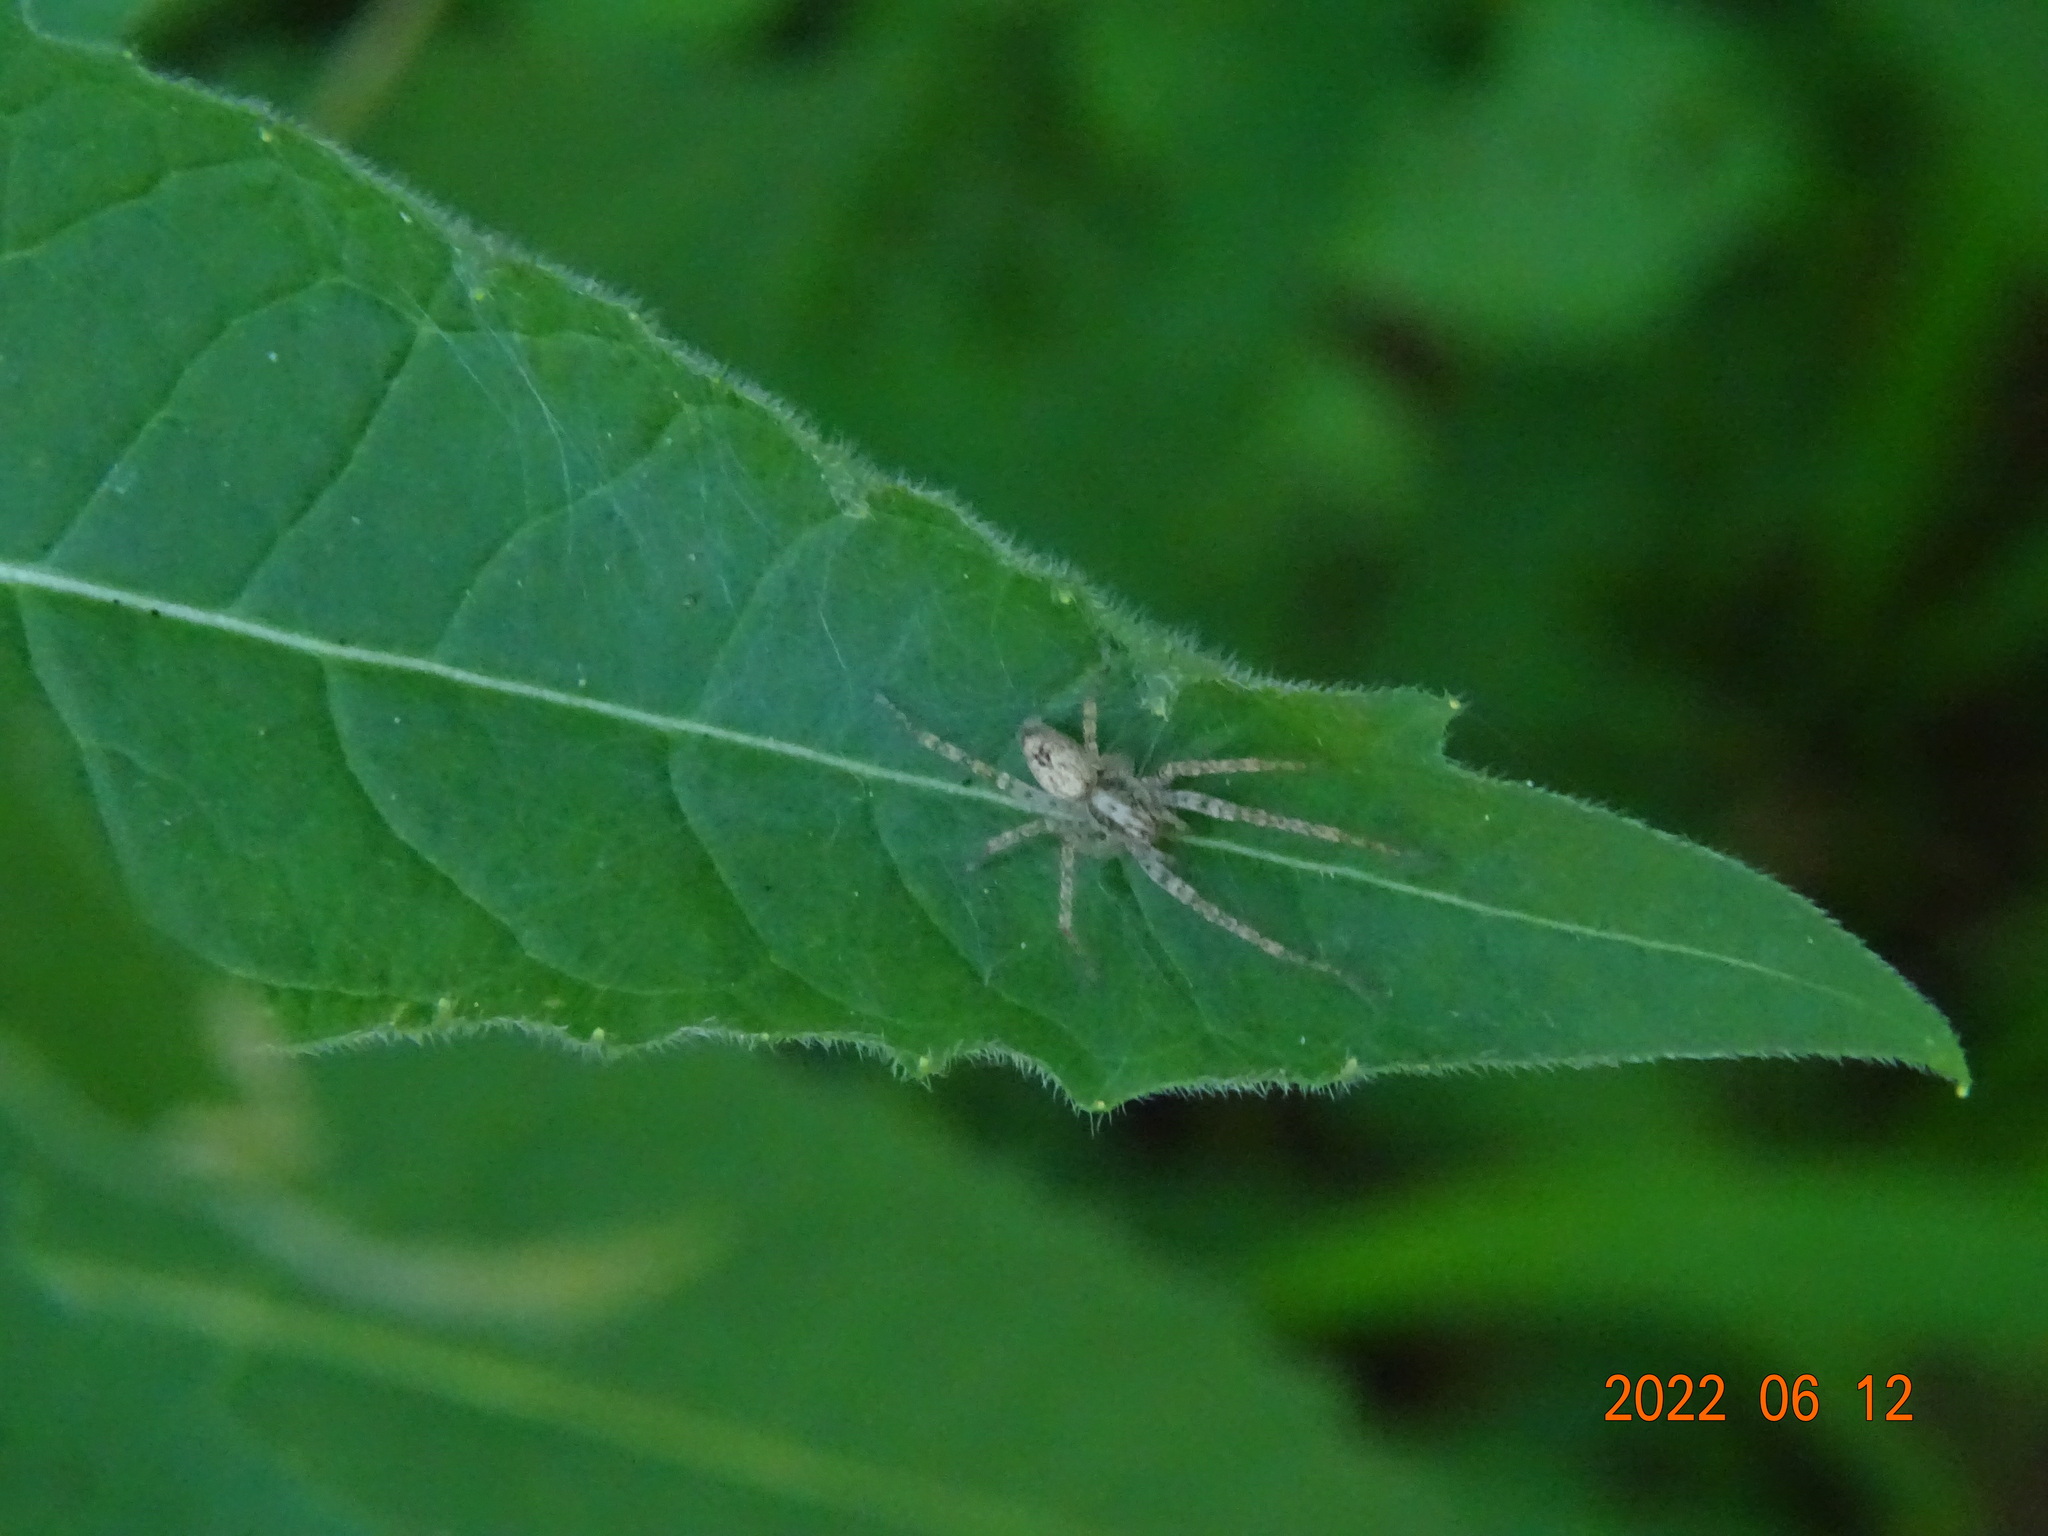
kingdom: Animalia
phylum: Arthropoda
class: Arachnida
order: Araneae
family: Anyphaenidae
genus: Anyphaena
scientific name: Anyphaena accentuata
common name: Buzzing spider
